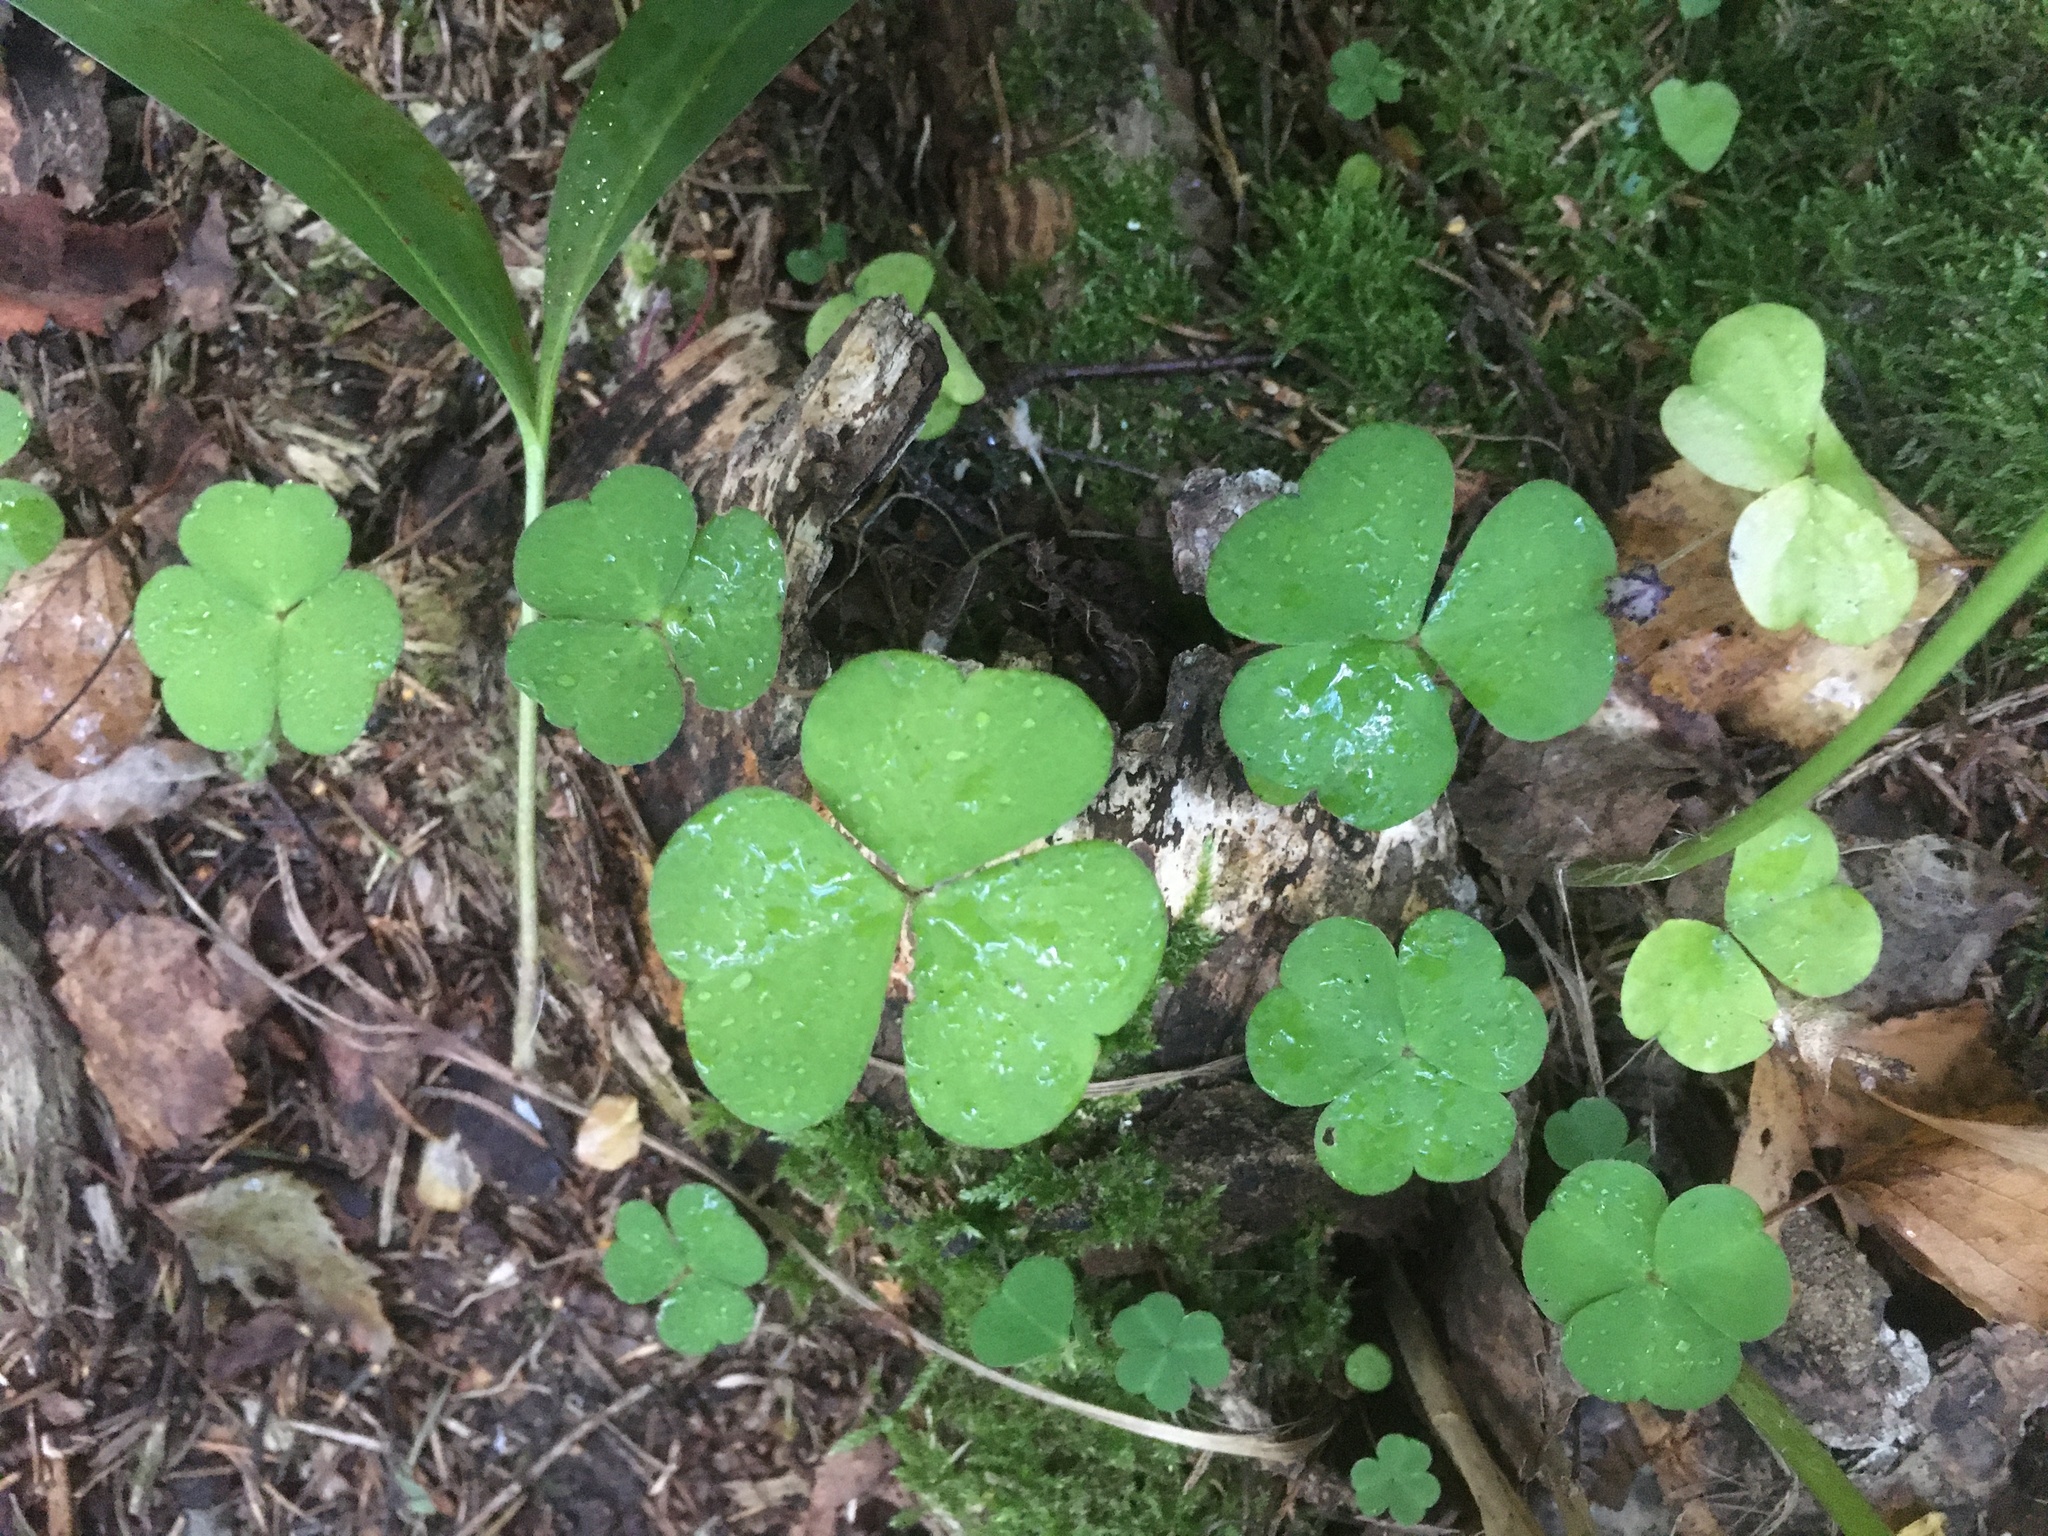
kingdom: Plantae
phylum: Tracheophyta
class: Magnoliopsida
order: Oxalidales
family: Oxalidaceae
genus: Oxalis
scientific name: Oxalis acetosella
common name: Wood-sorrel
